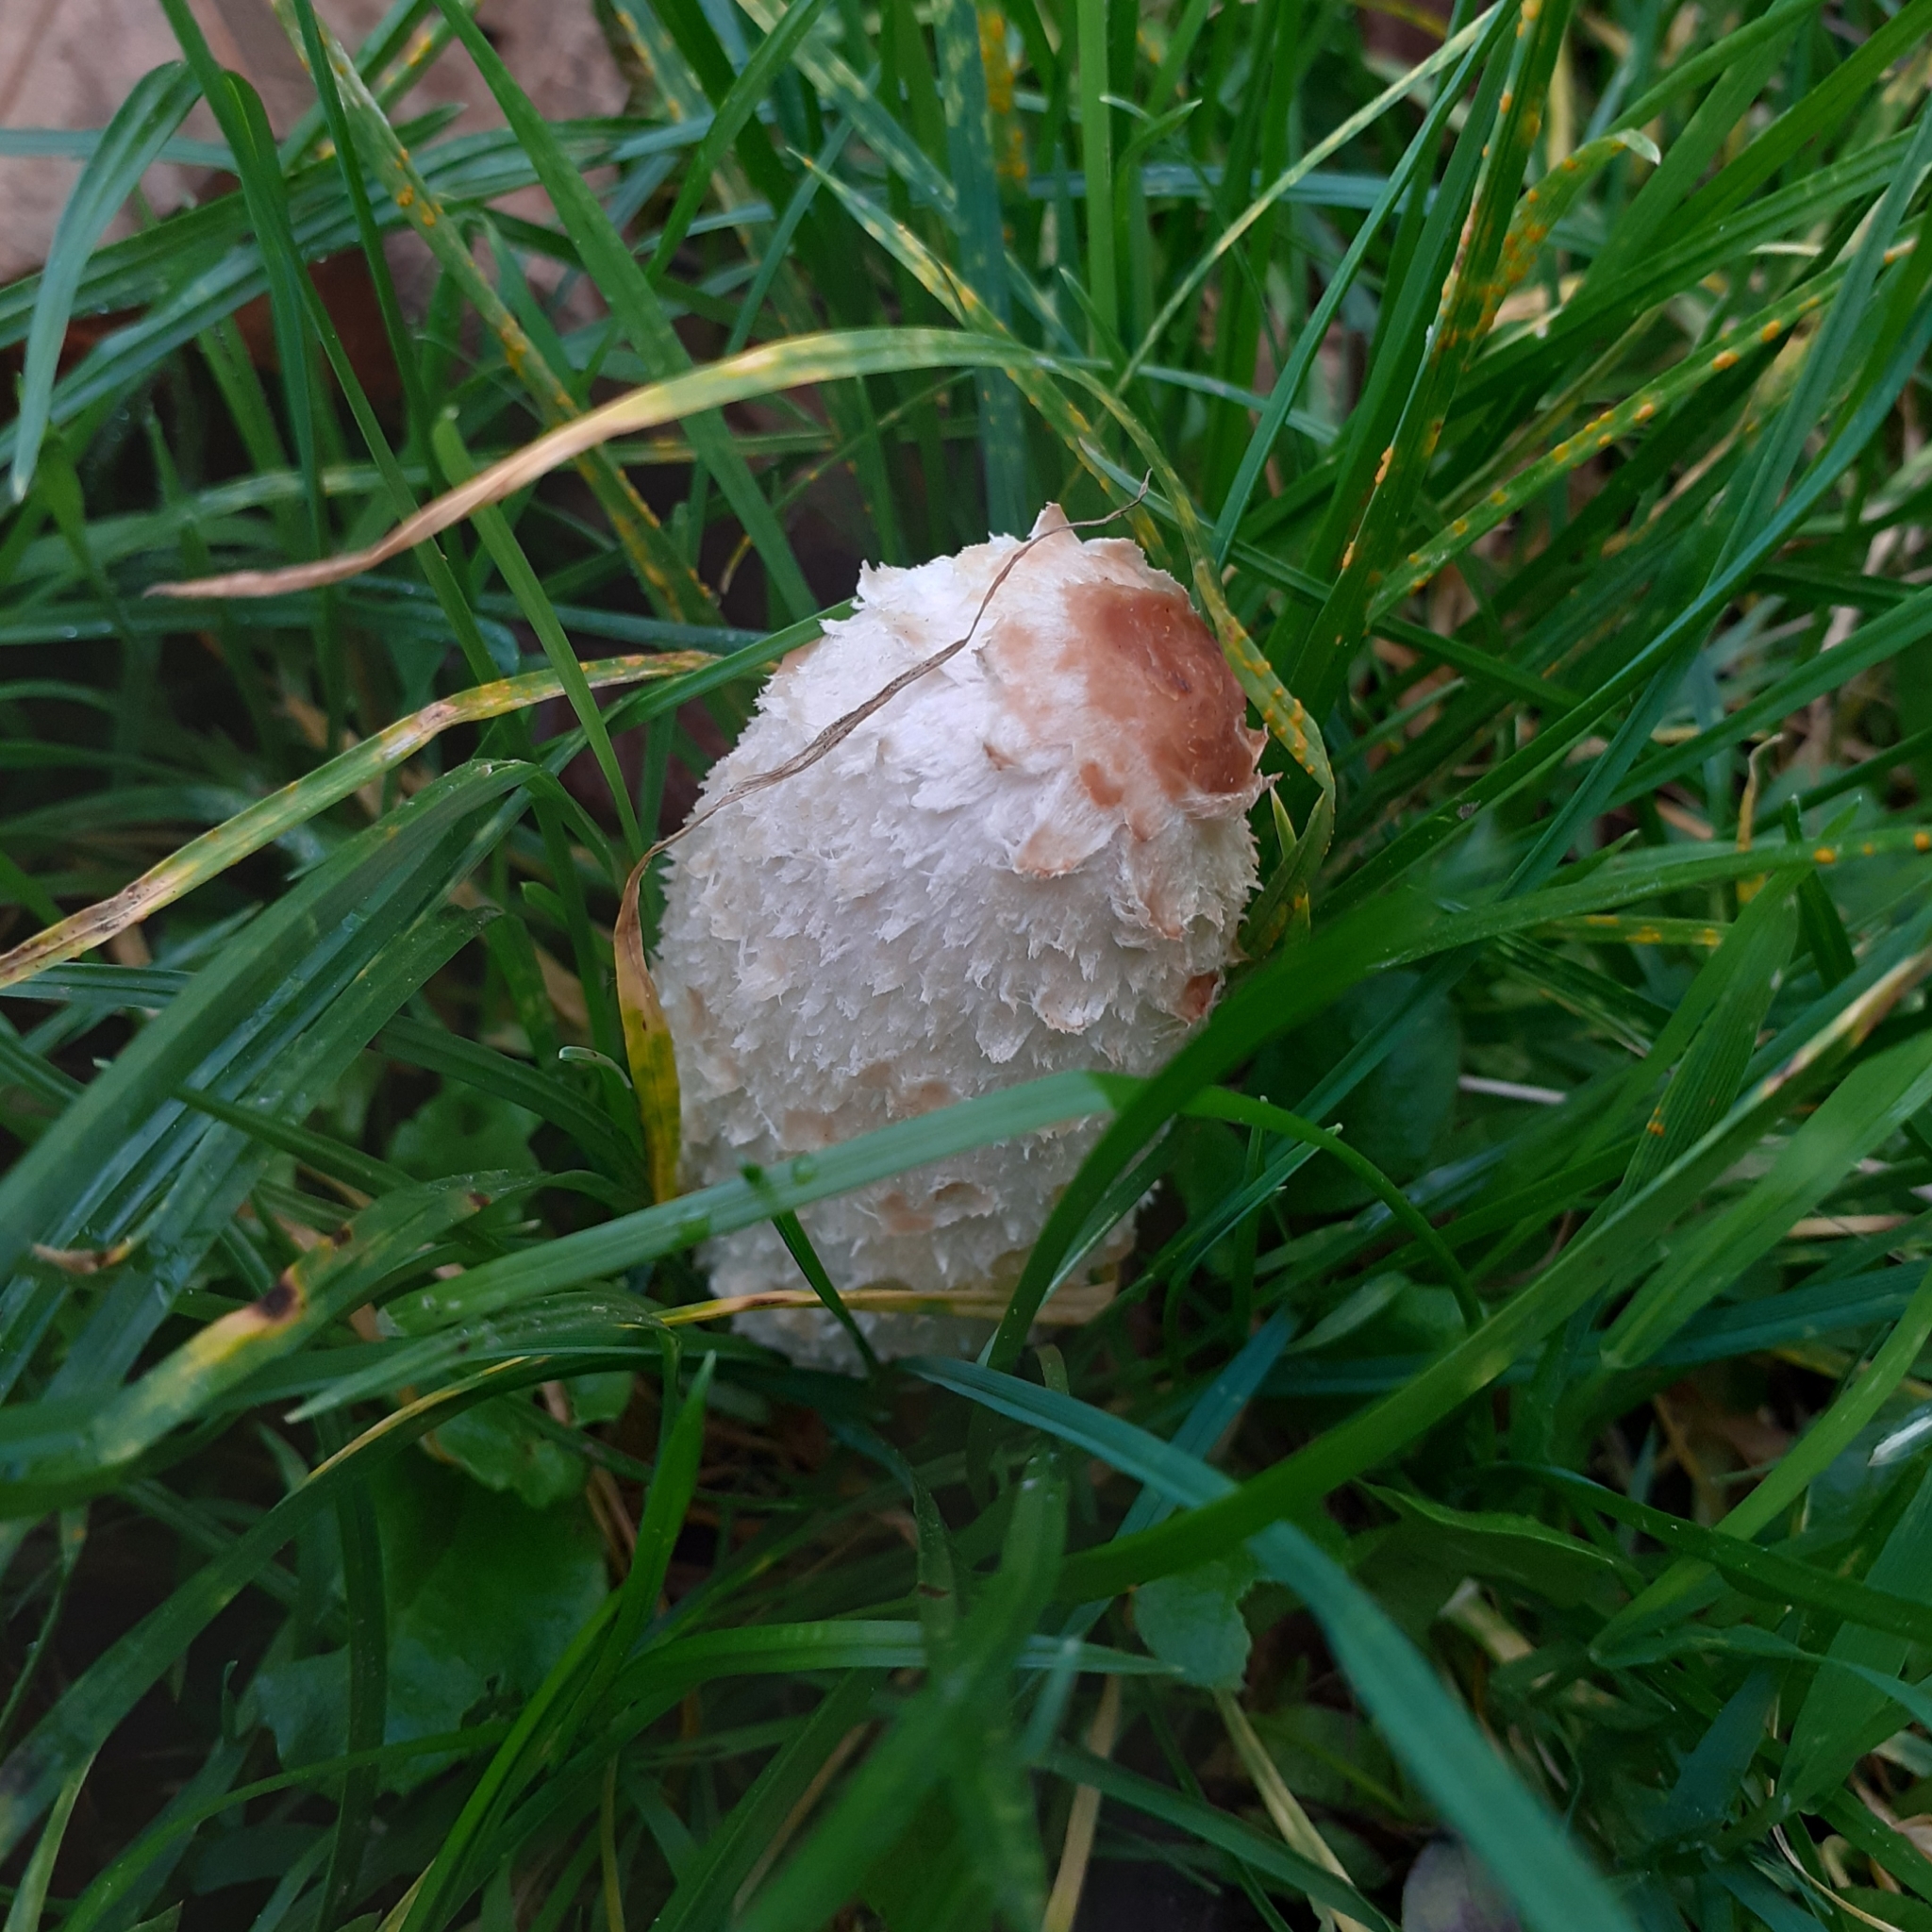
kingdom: Fungi
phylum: Basidiomycota
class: Agaricomycetes
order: Agaricales
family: Agaricaceae
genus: Coprinus
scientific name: Coprinus comatus
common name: Lawyer's wig
